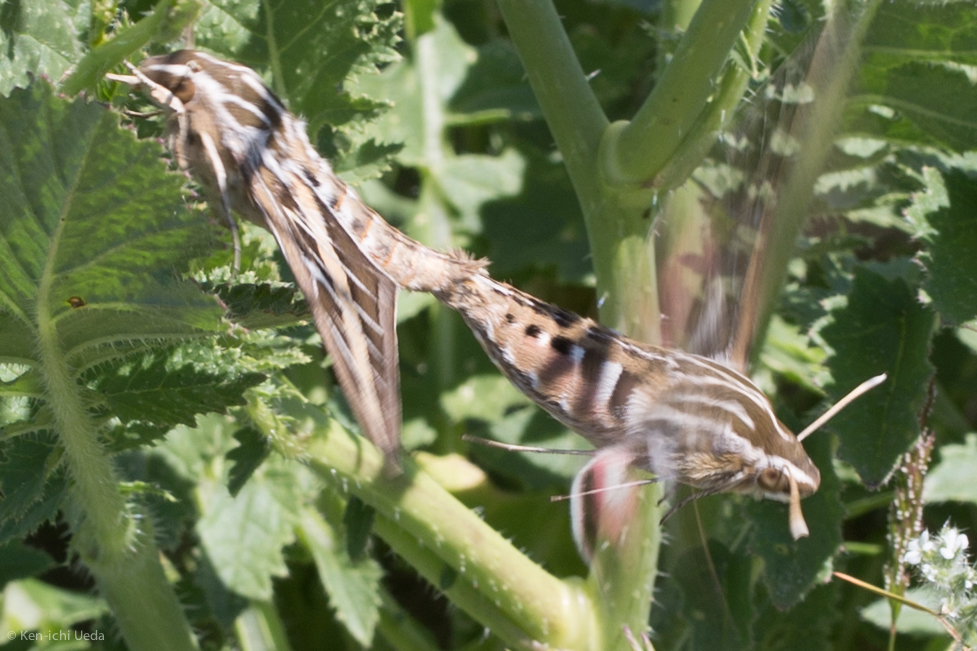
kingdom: Animalia
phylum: Arthropoda
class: Insecta
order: Lepidoptera
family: Sphingidae
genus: Hyles
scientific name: Hyles lineata
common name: White-lined sphinx
